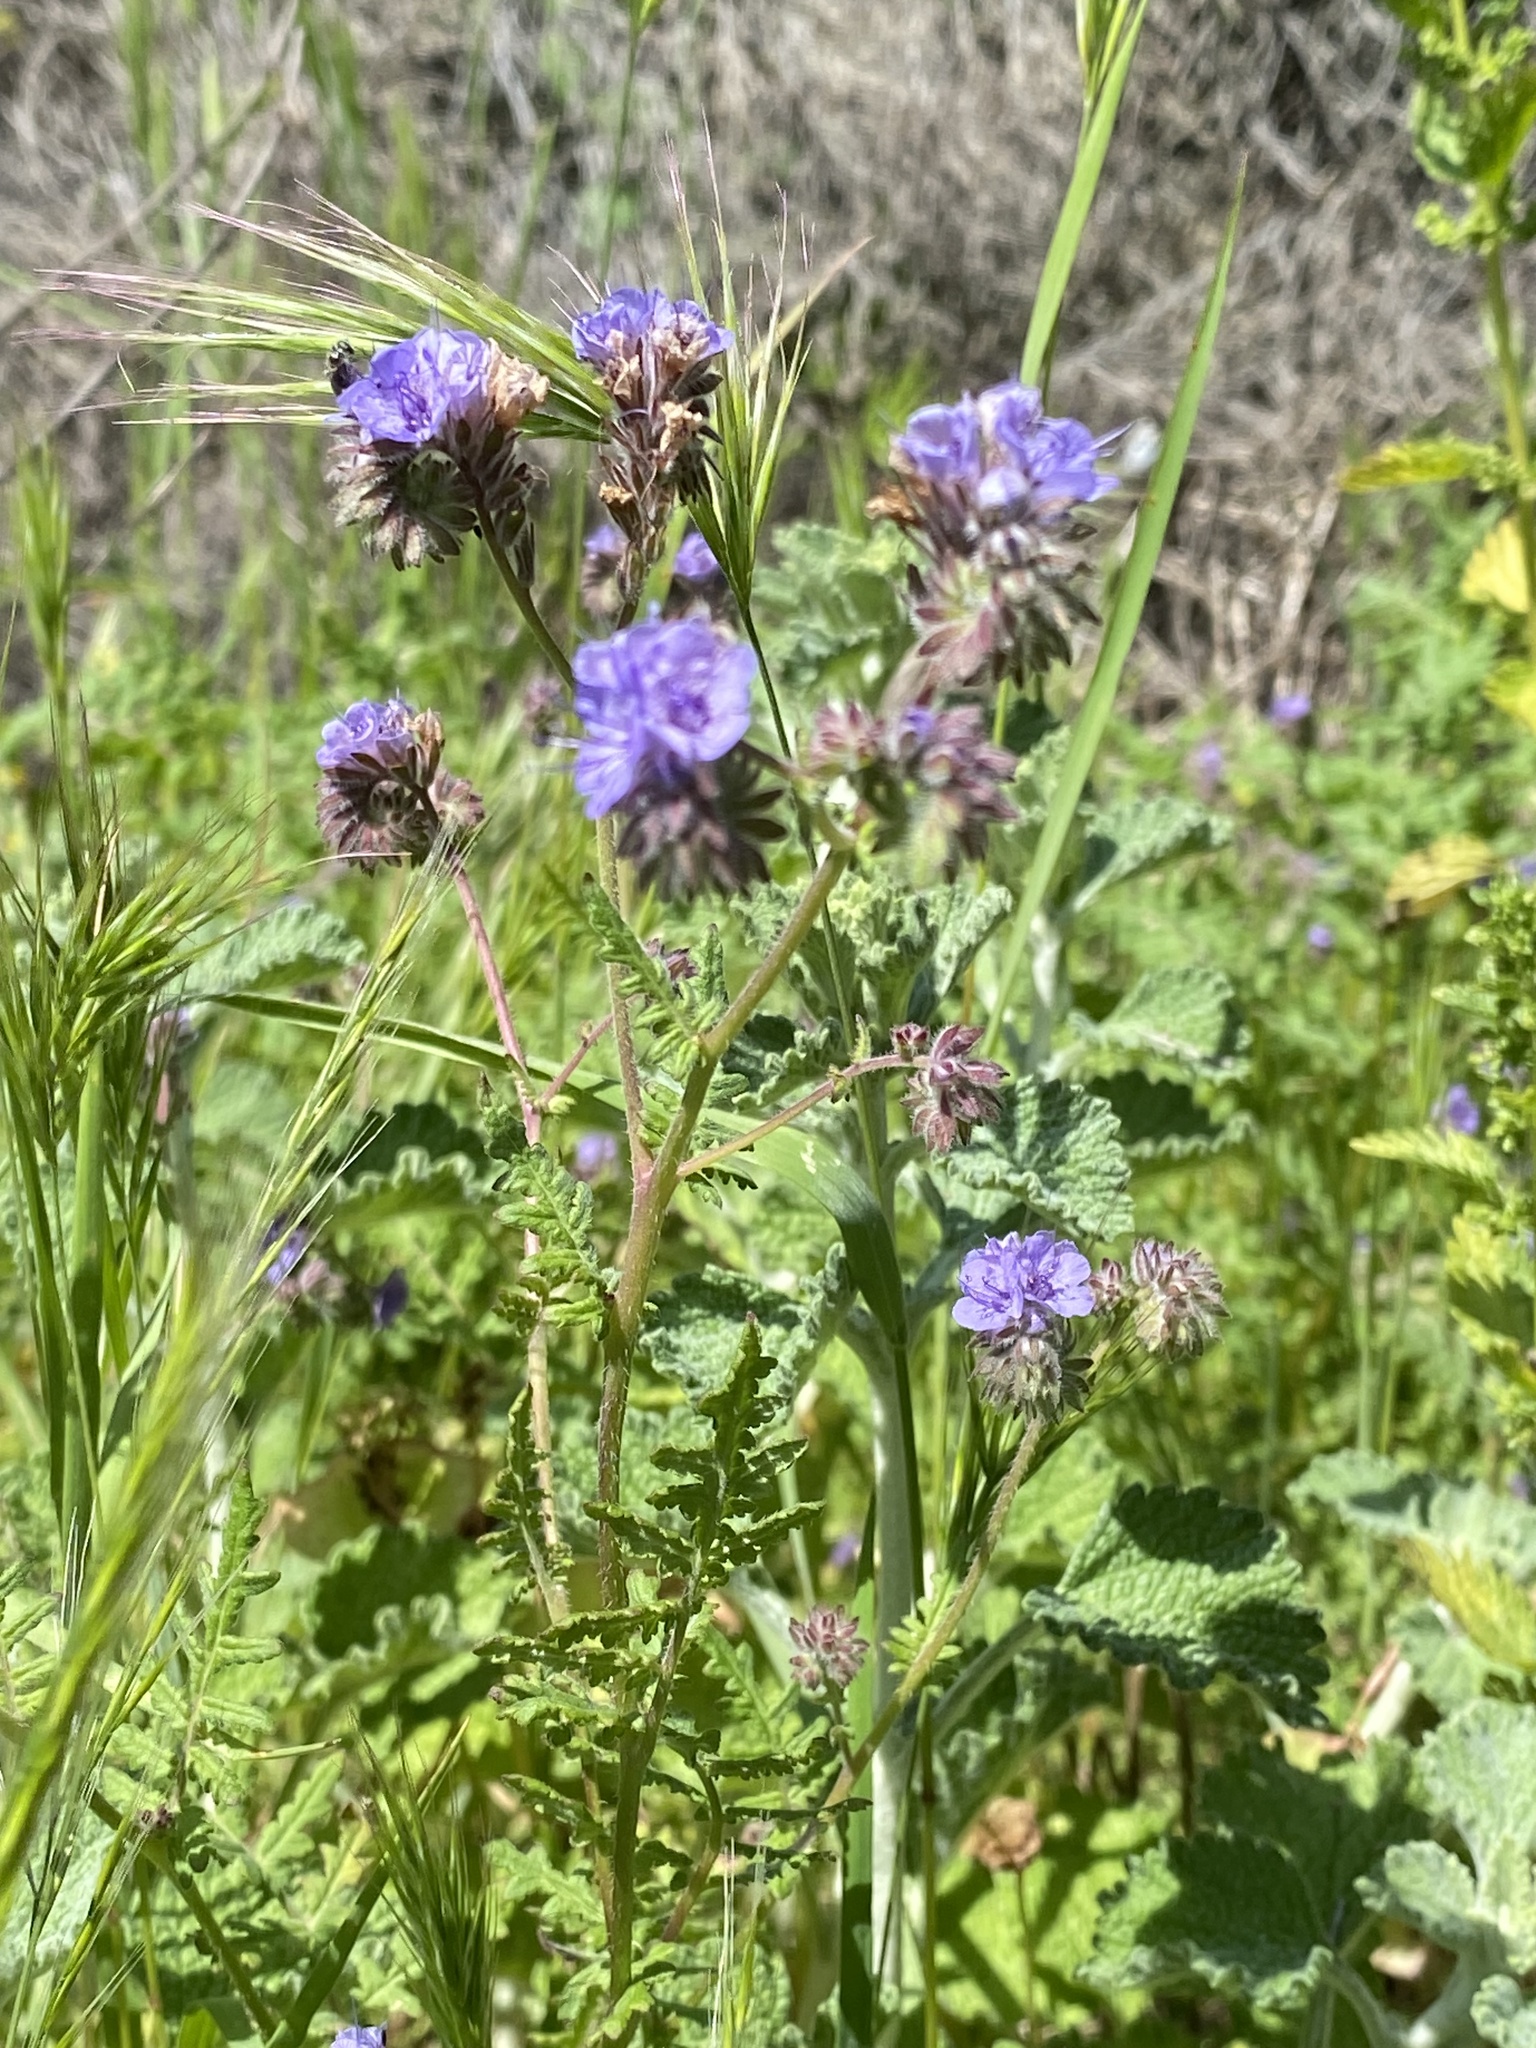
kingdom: Plantae
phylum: Tracheophyta
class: Magnoliopsida
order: Boraginales
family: Hydrophyllaceae
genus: Phacelia
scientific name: Phacelia distans
